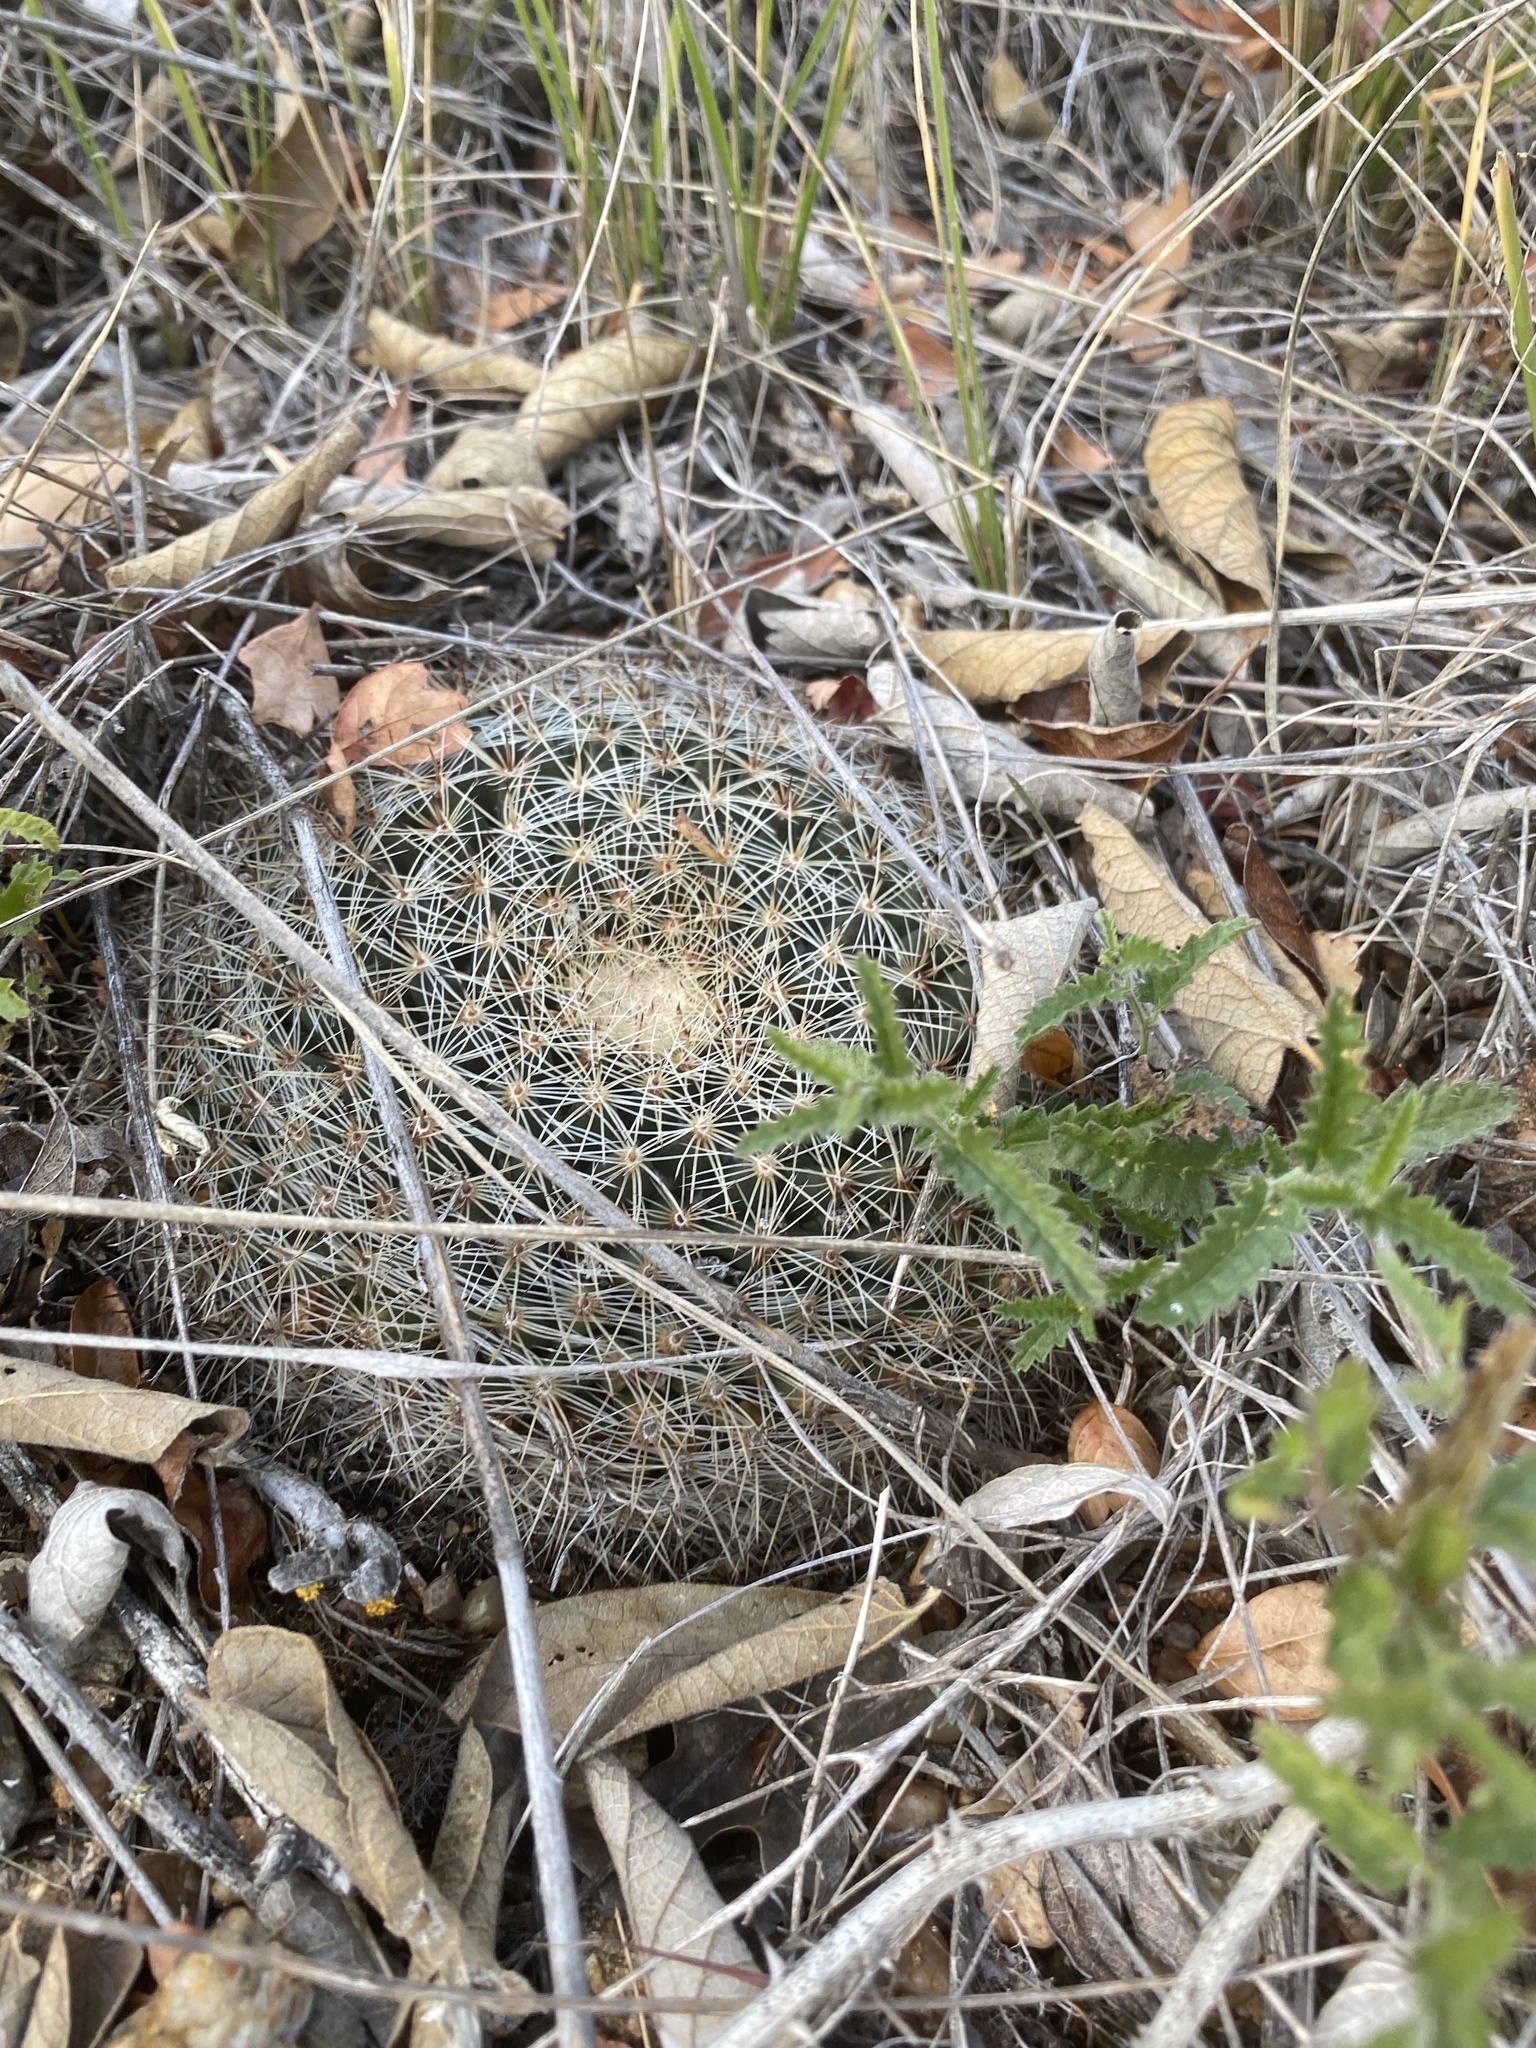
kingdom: Plantae
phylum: Tracheophyta
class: Magnoliopsida
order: Caryophyllales
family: Cactaceae
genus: Mammillaria
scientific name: Mammillaria heyderi
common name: Little nipple cactus
